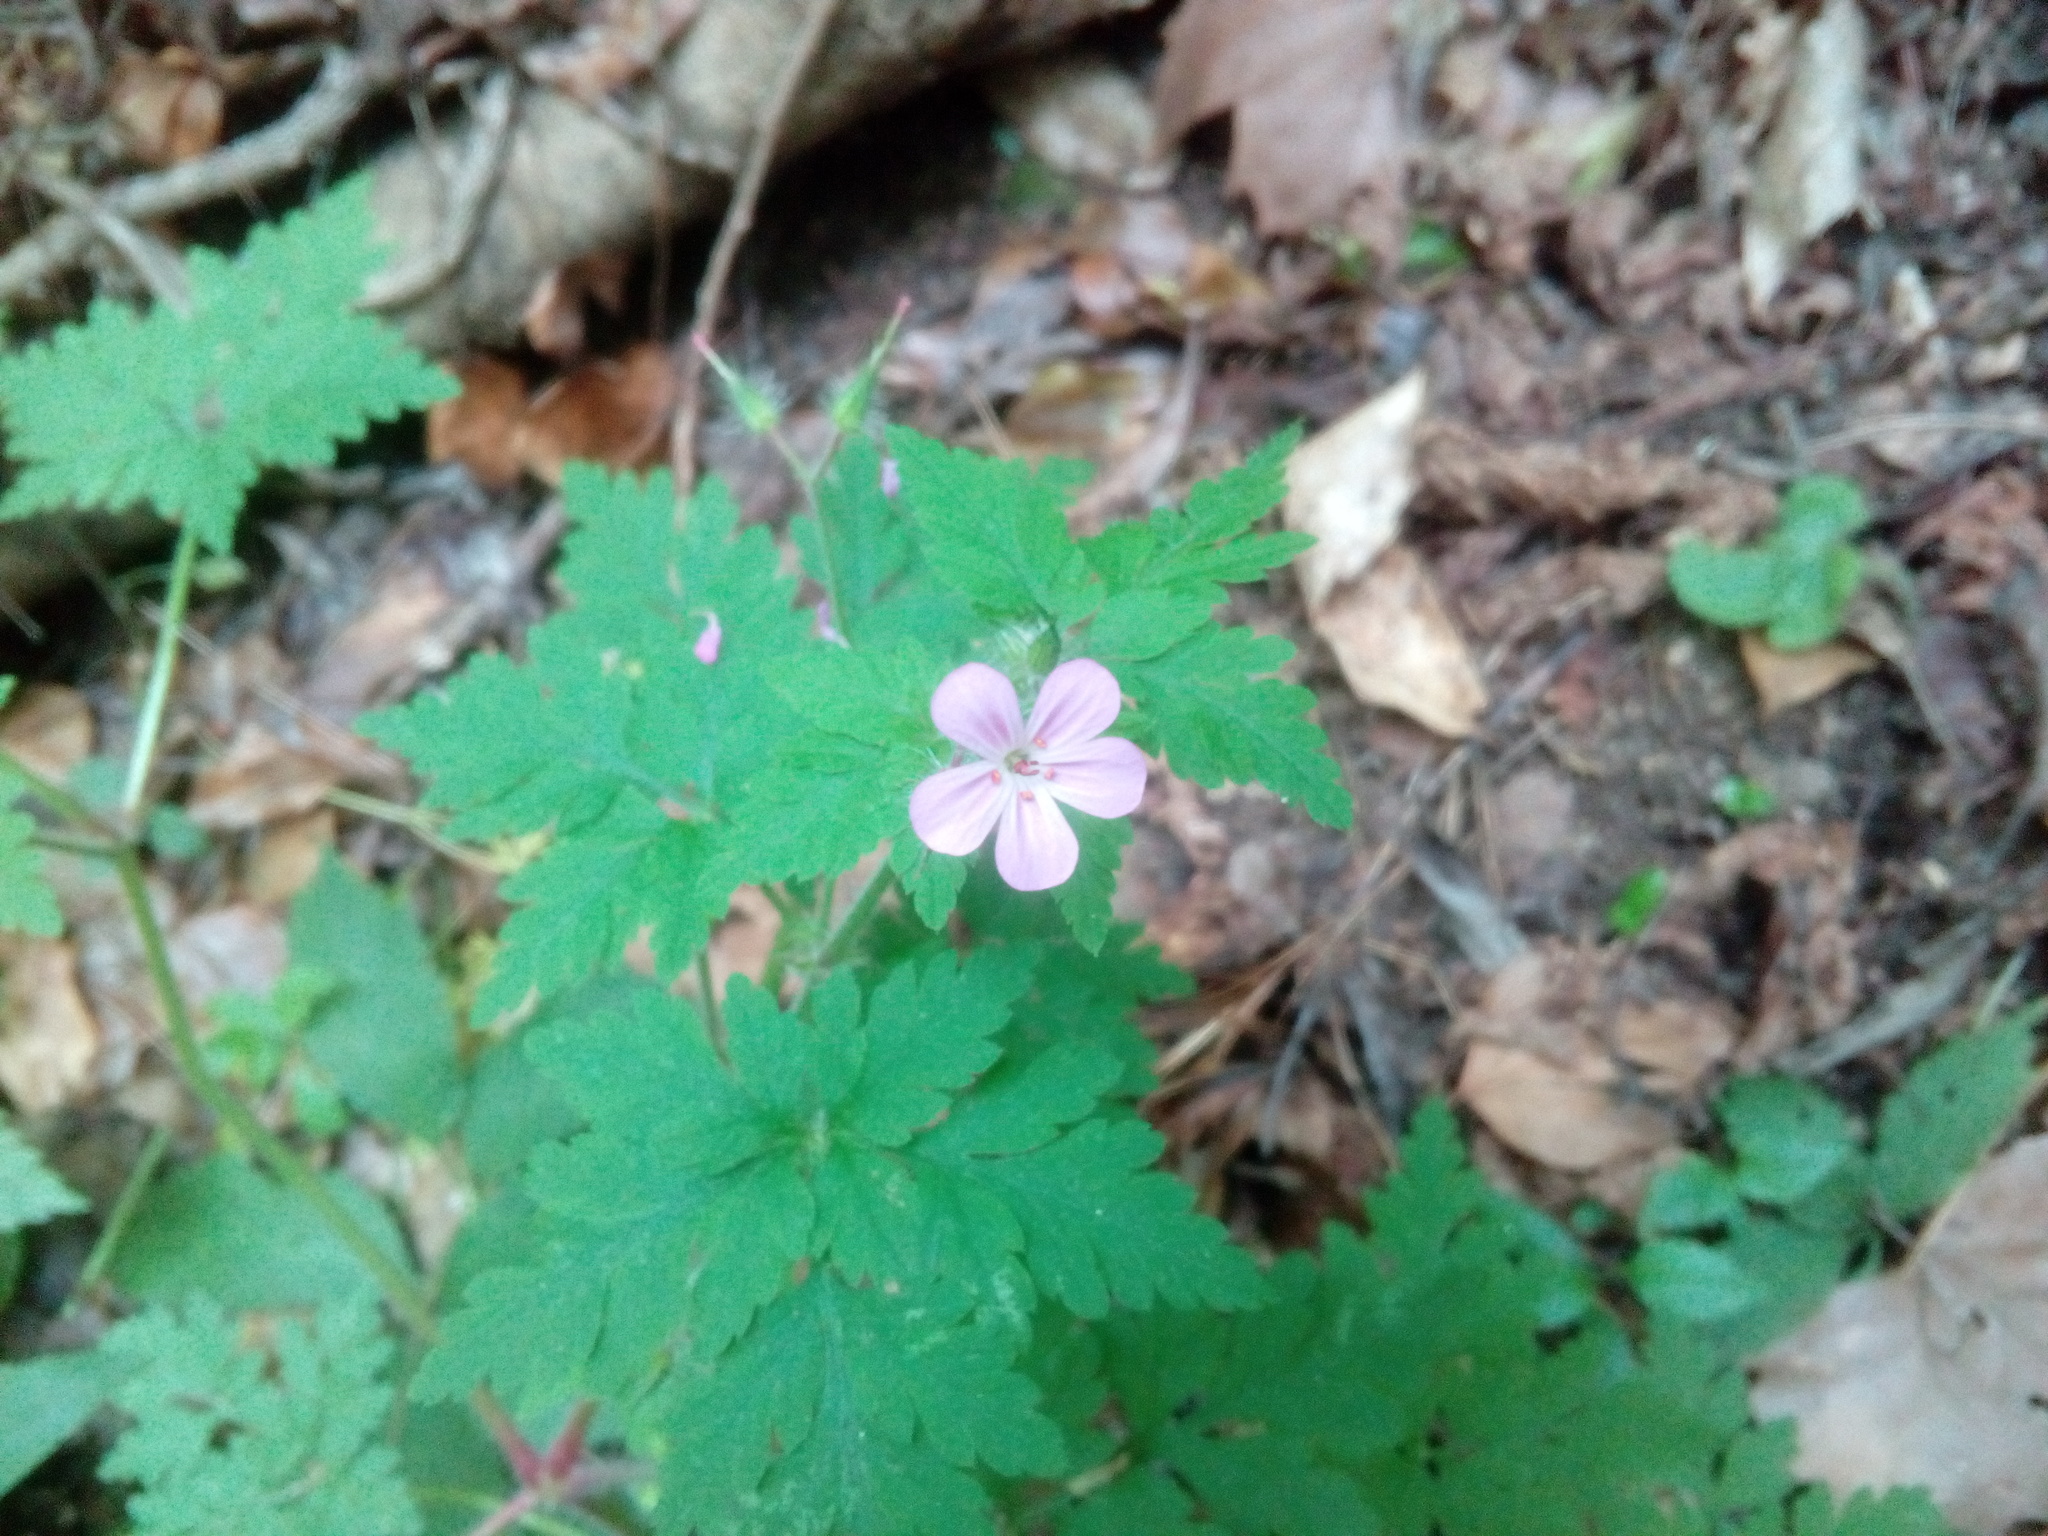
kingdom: Plantae
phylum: Tracheophyta
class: Magnoliopsida
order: Geraniales
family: Geraniaceae
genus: Geranium
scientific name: Geranium robertianum
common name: Herb-robert
